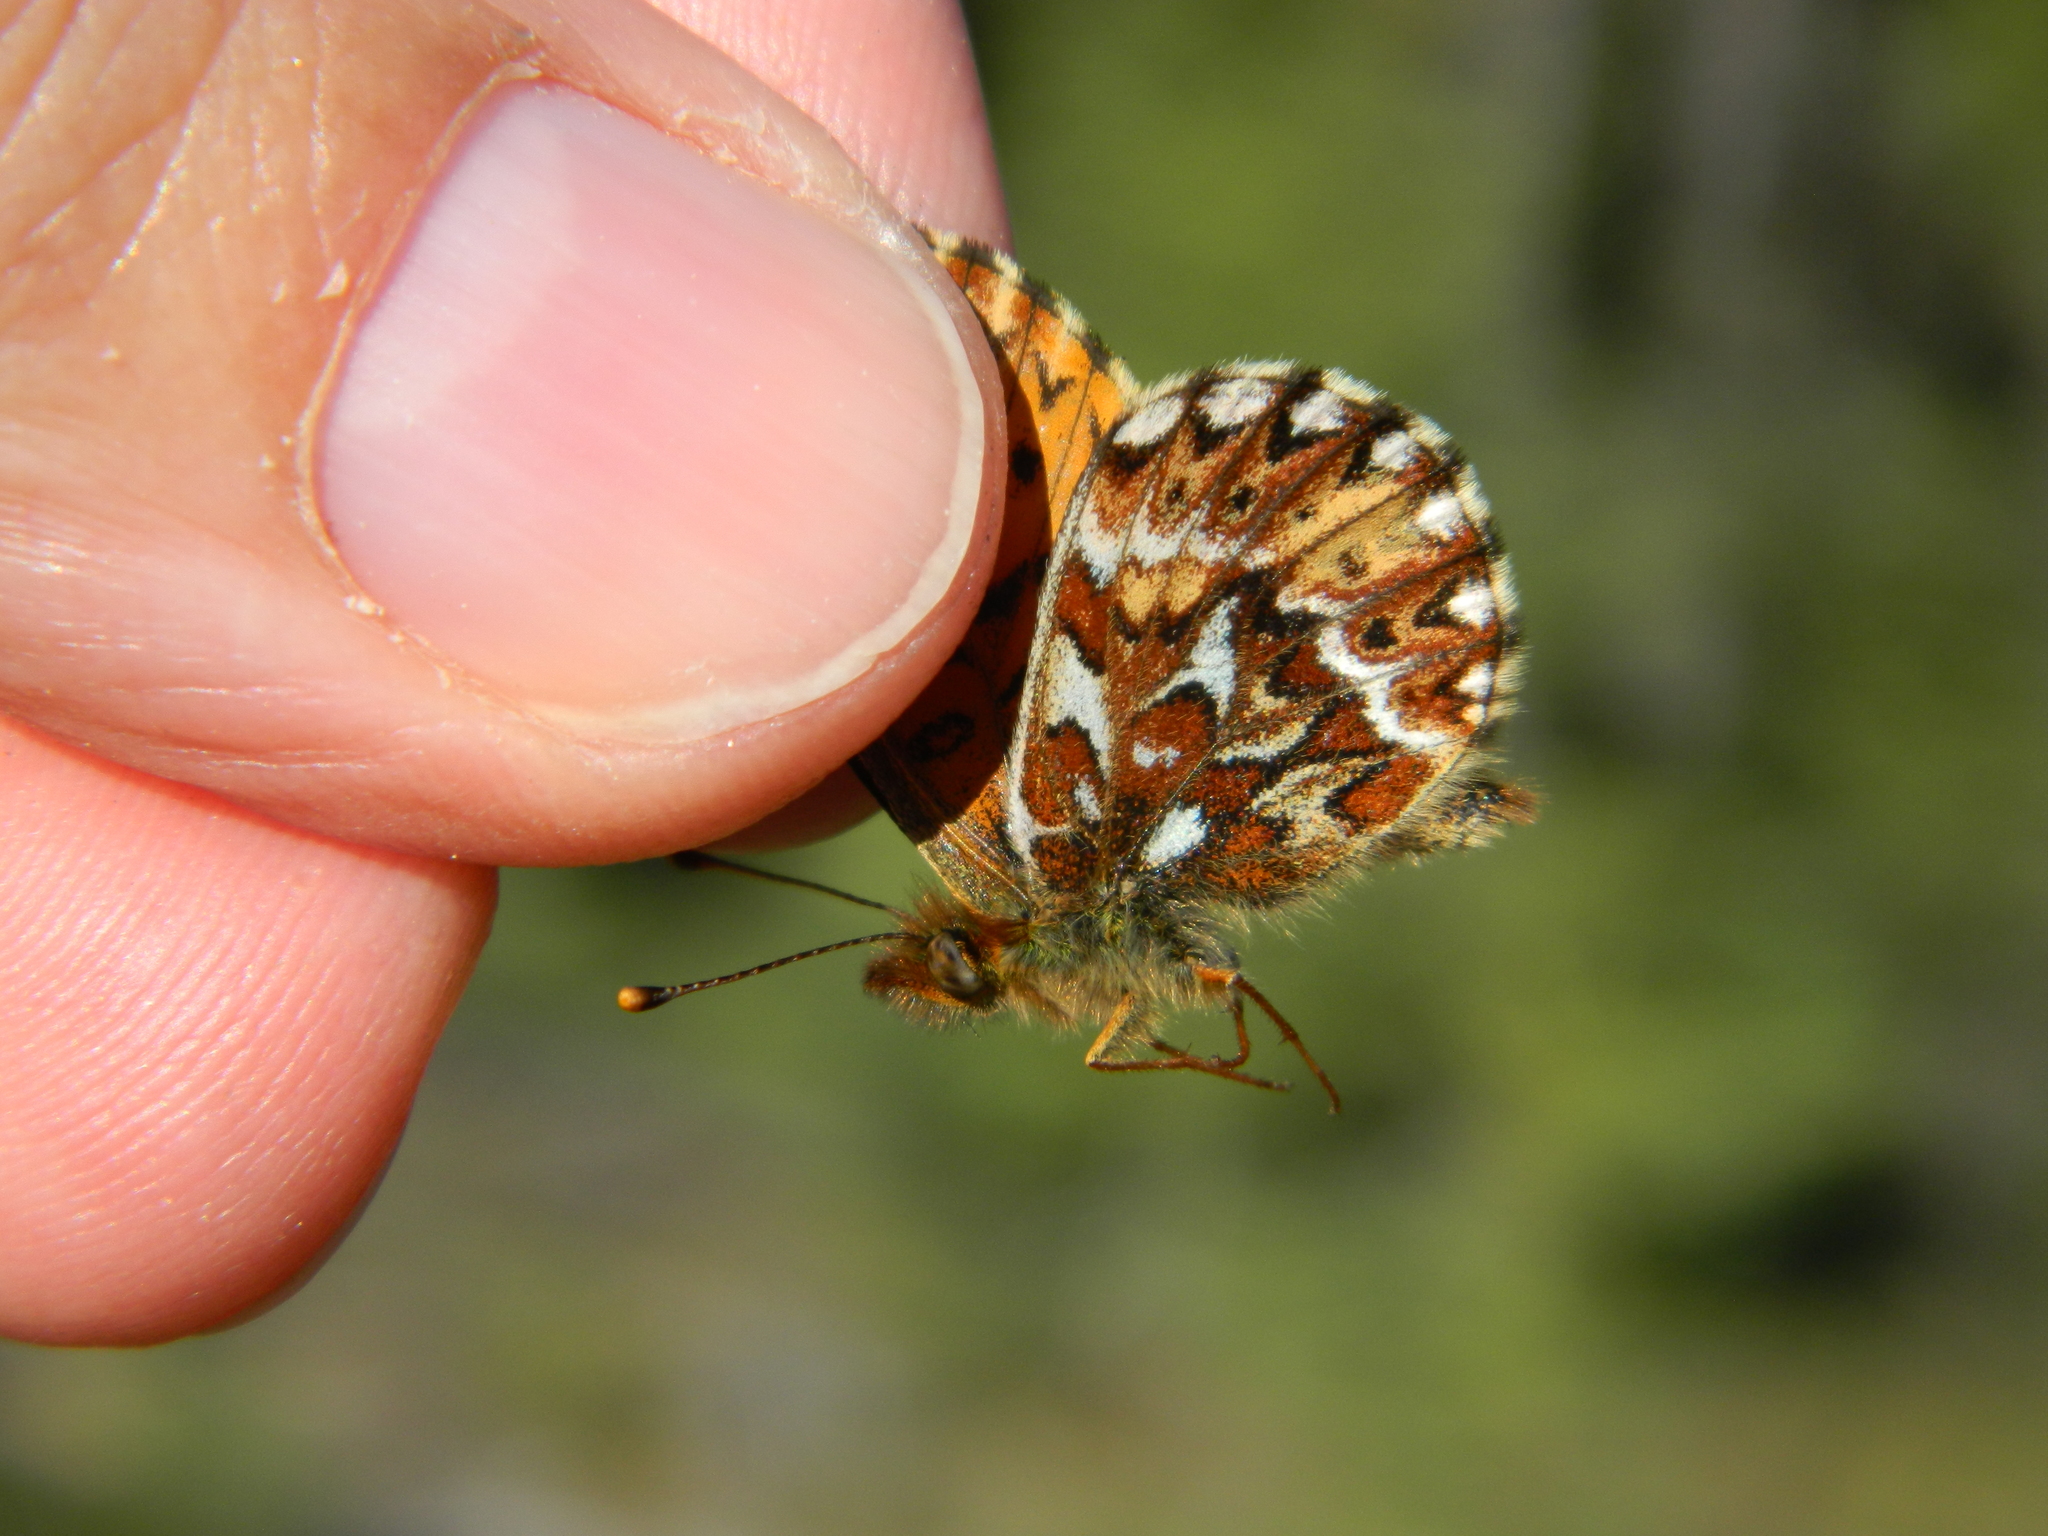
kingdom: Animalia
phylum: Arthropoda
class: Insecta
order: Lepidoptera
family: Nymphalidae
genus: Boloria
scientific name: Boloria freija
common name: Freija fritillary
